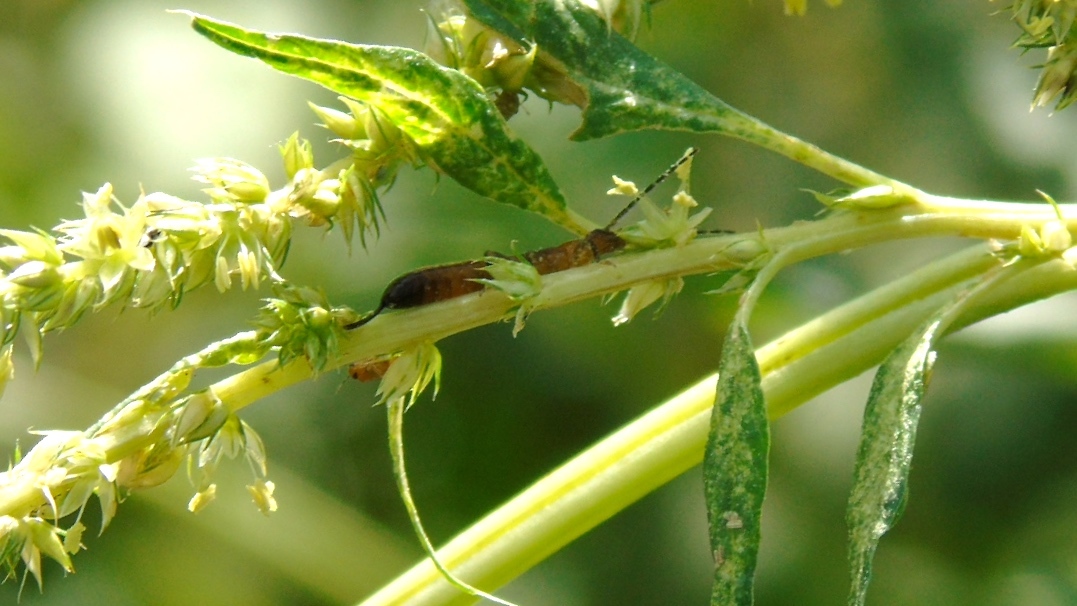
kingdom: Animalia
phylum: Arthropoda
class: Insecta
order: Dermaptera
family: Forficulidae
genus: Doru
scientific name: Doru
